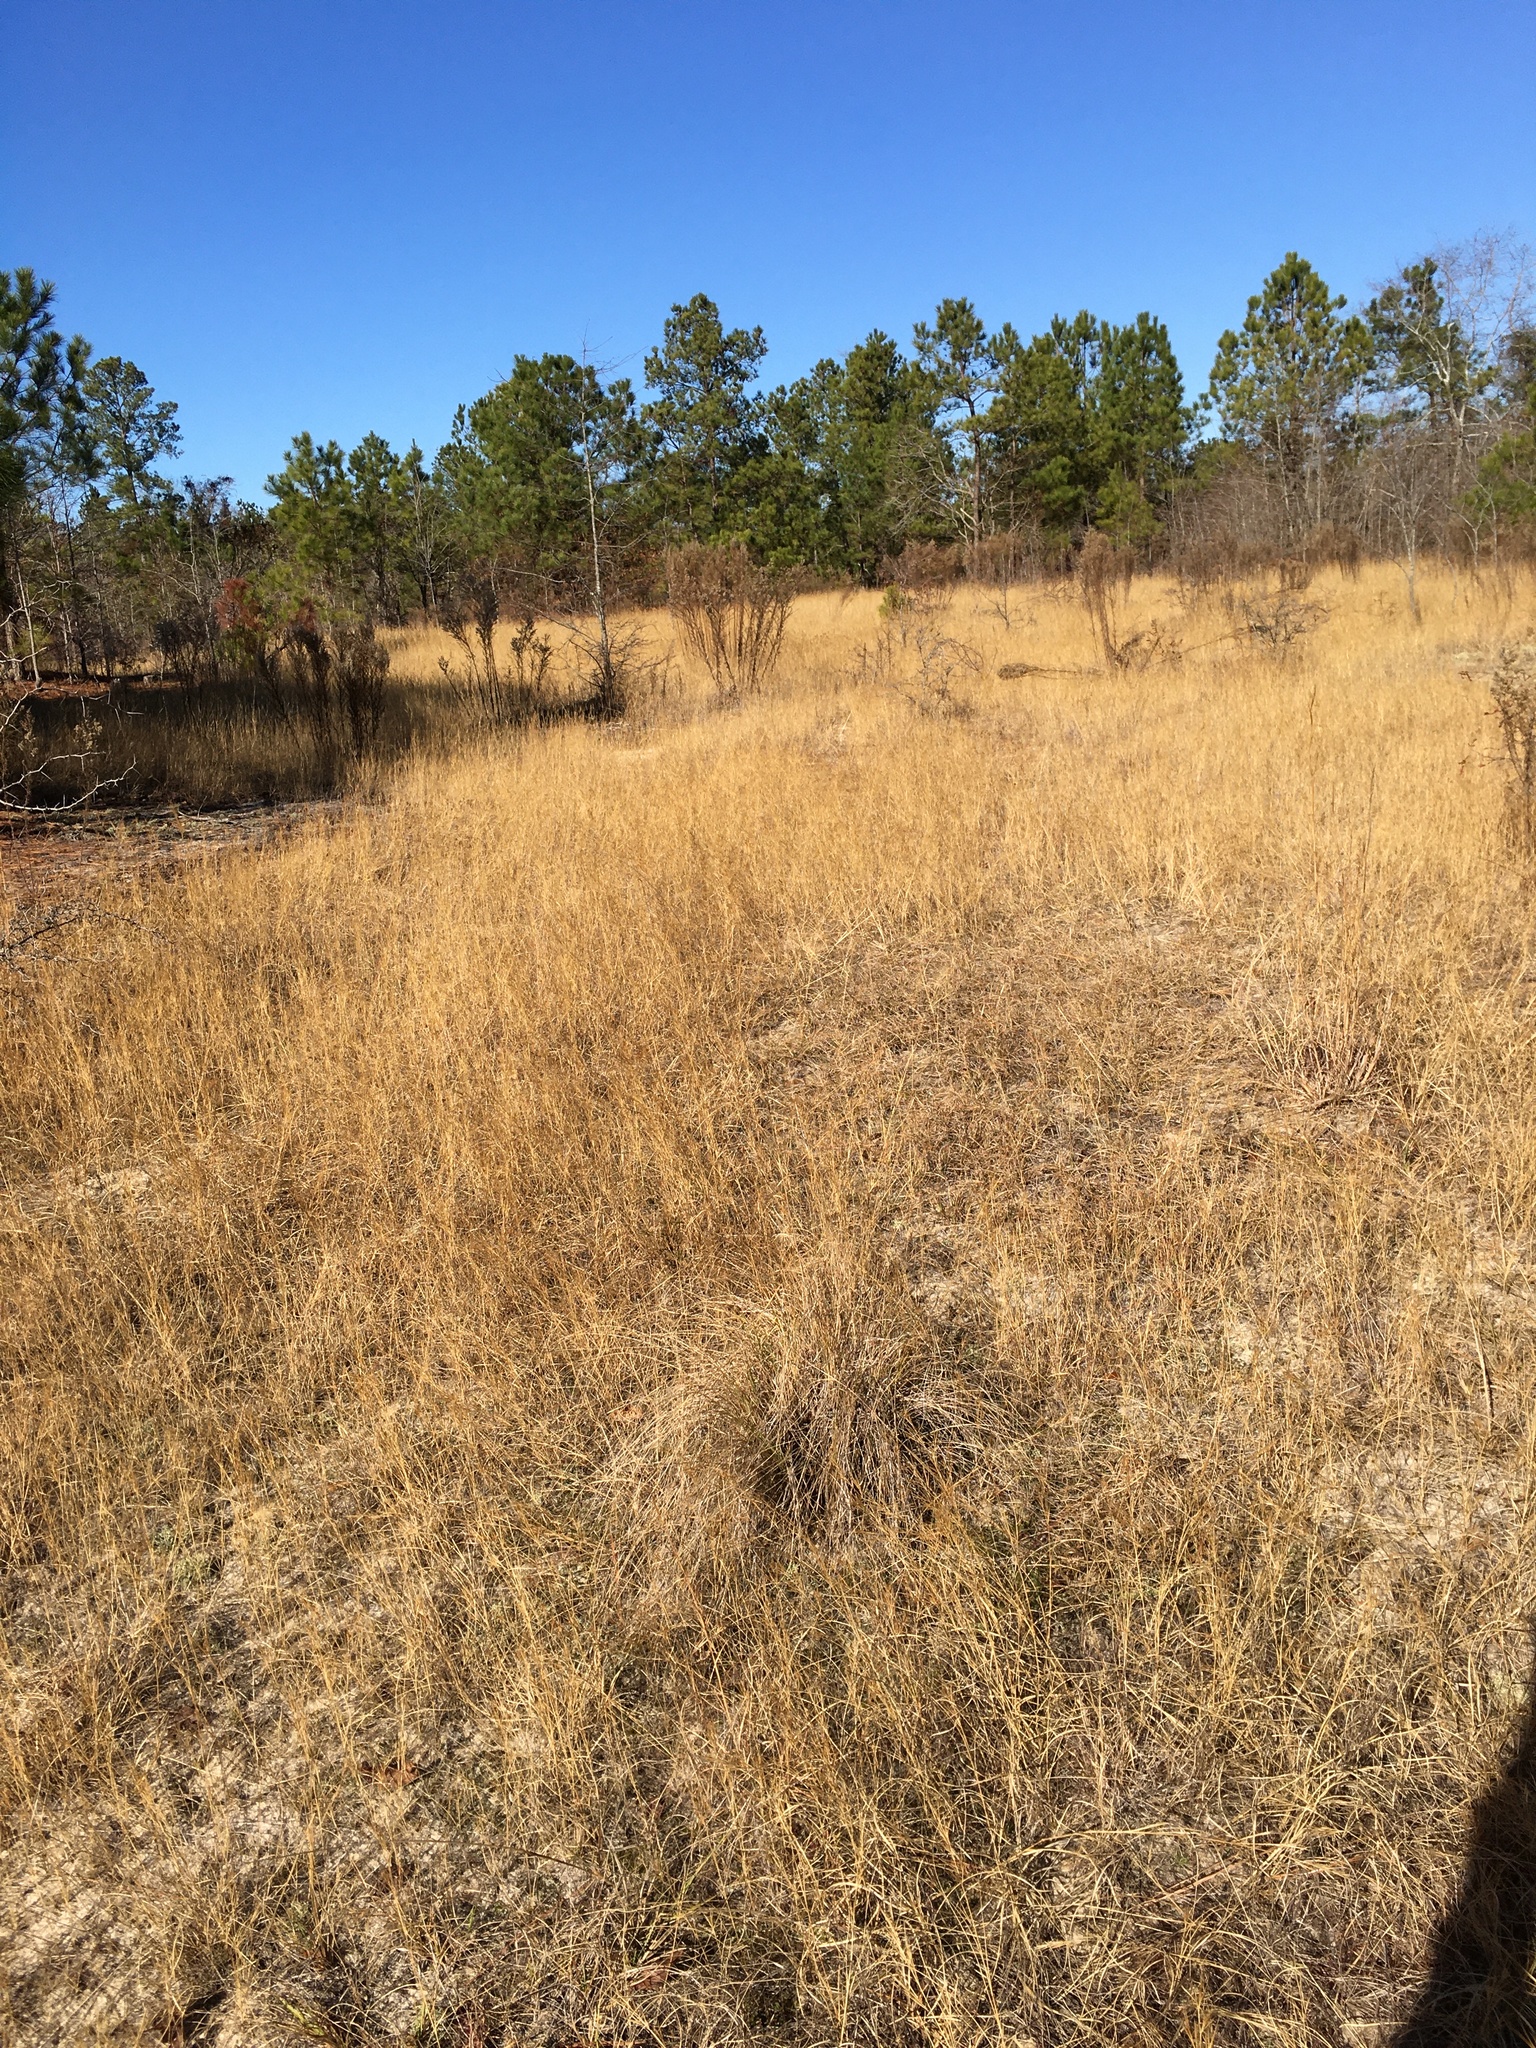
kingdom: Plantae
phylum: Tracheophyta
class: Liliopsida
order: Poales
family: Poaceae
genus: Aristida
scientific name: Aristida tuberculosa
